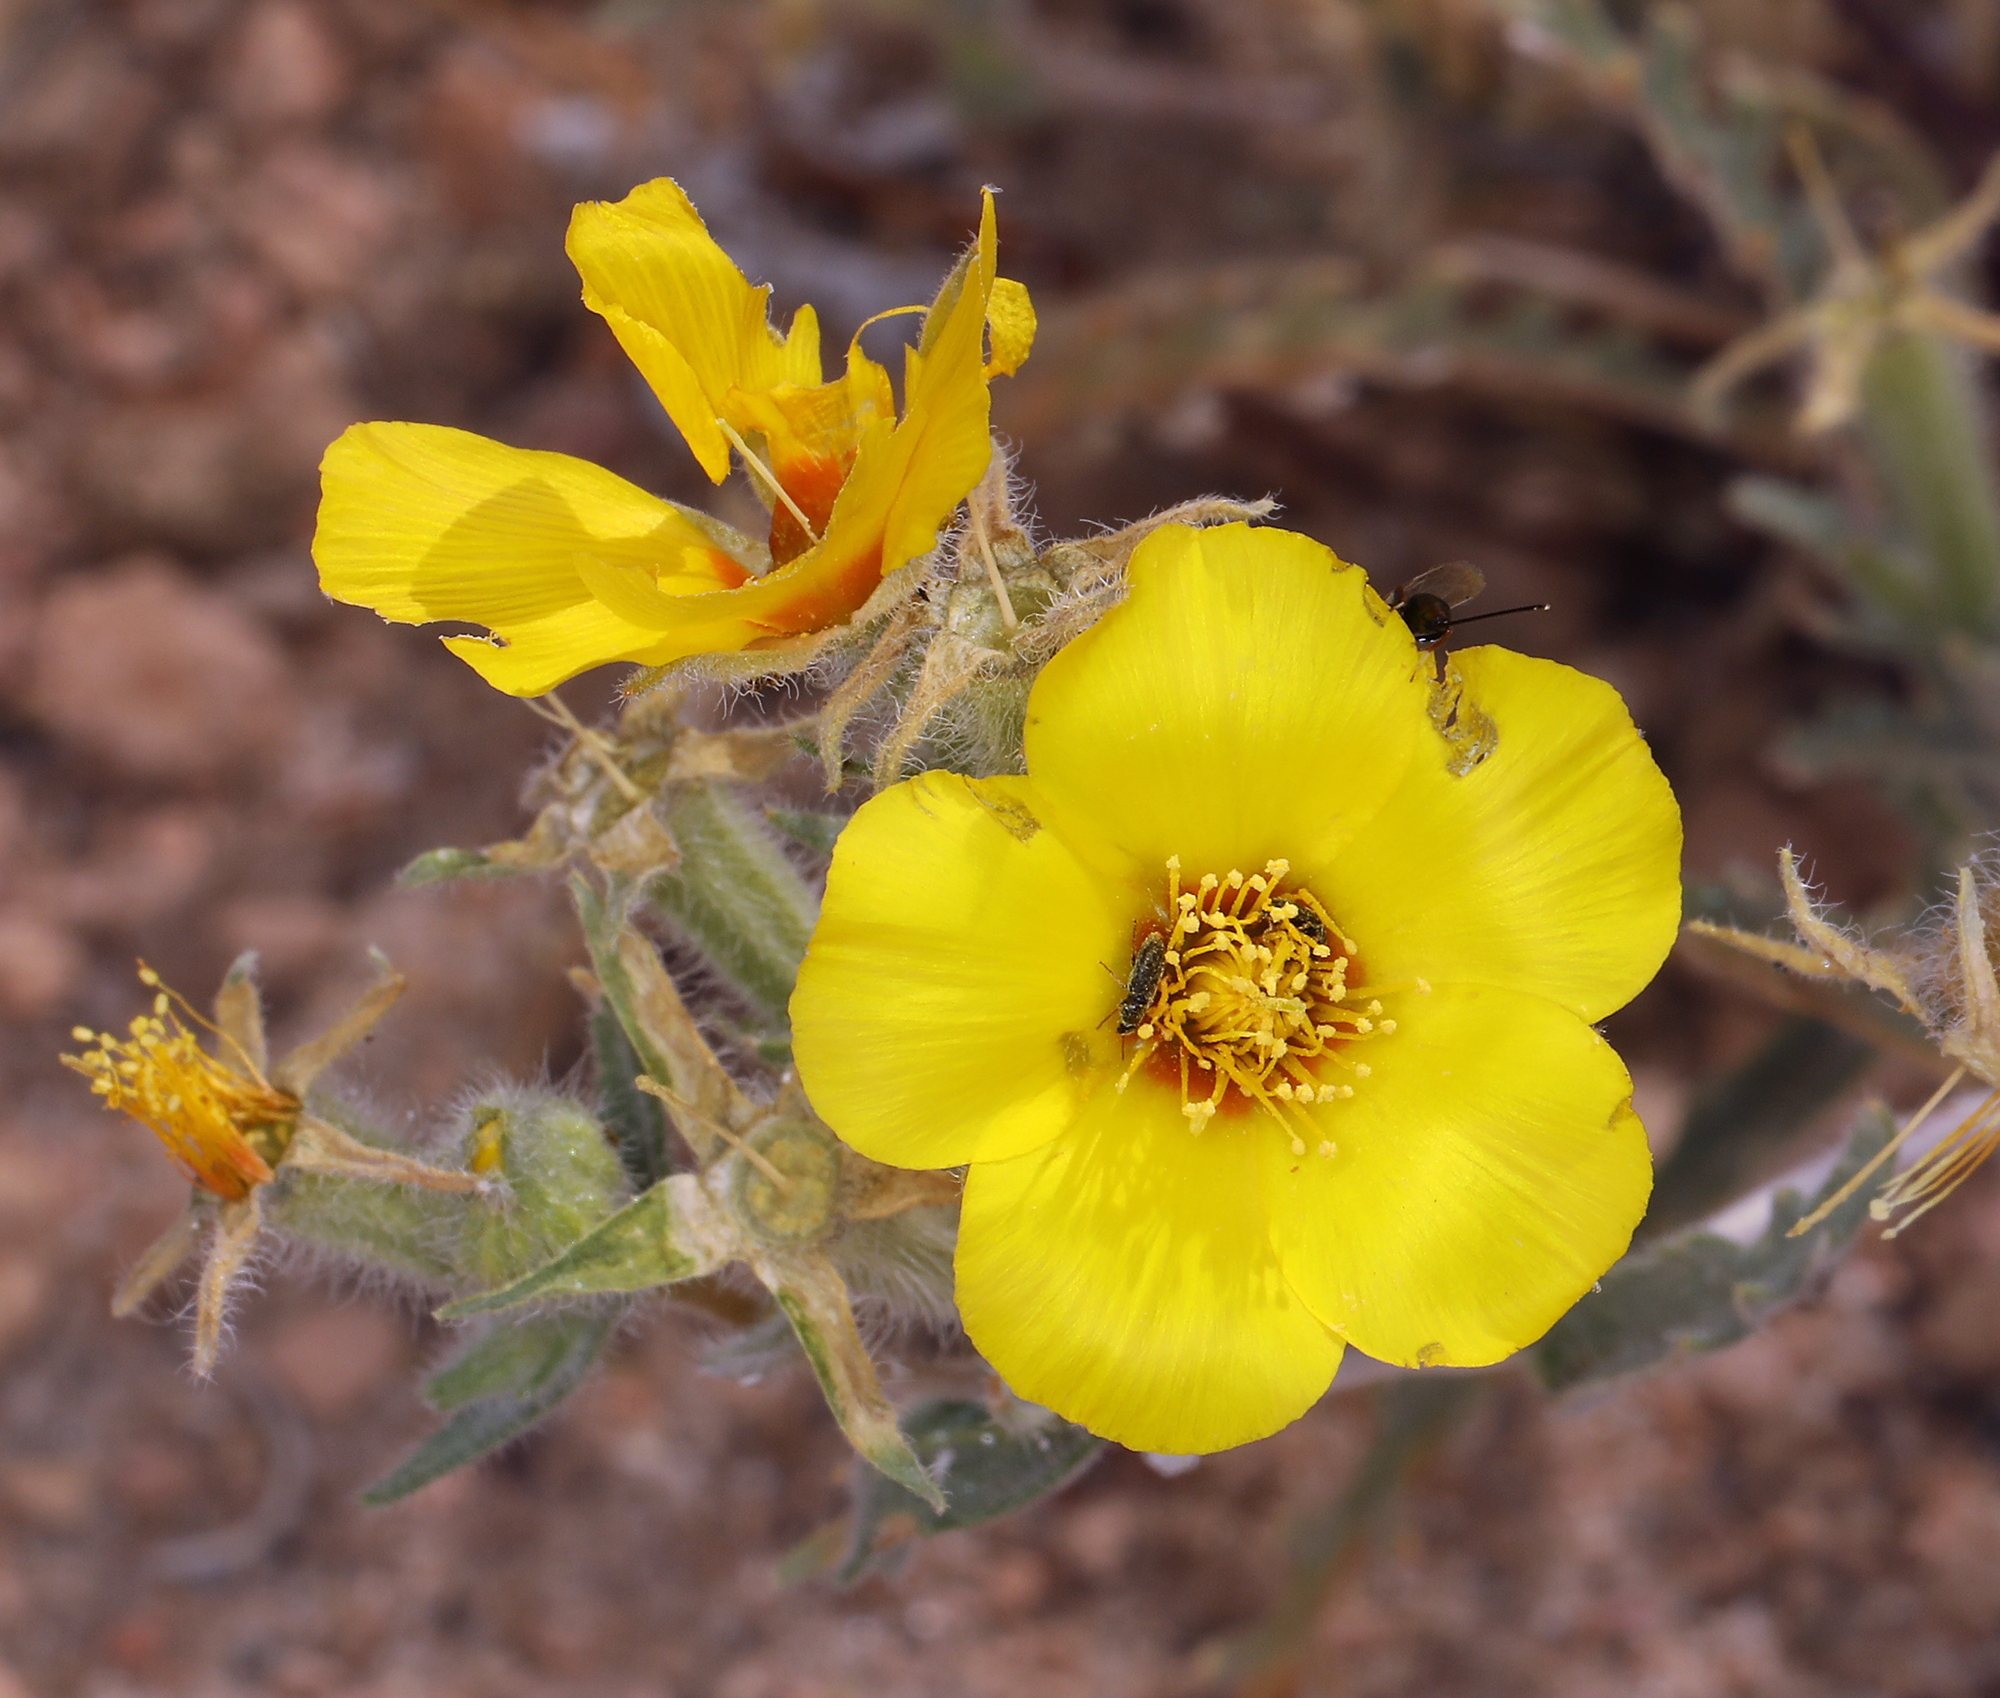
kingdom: Plantae
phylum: Tracheophyta
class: Magnoliopsida
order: Cornales
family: Loasaceae
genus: Mentzelia
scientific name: Mentzelia nitens
